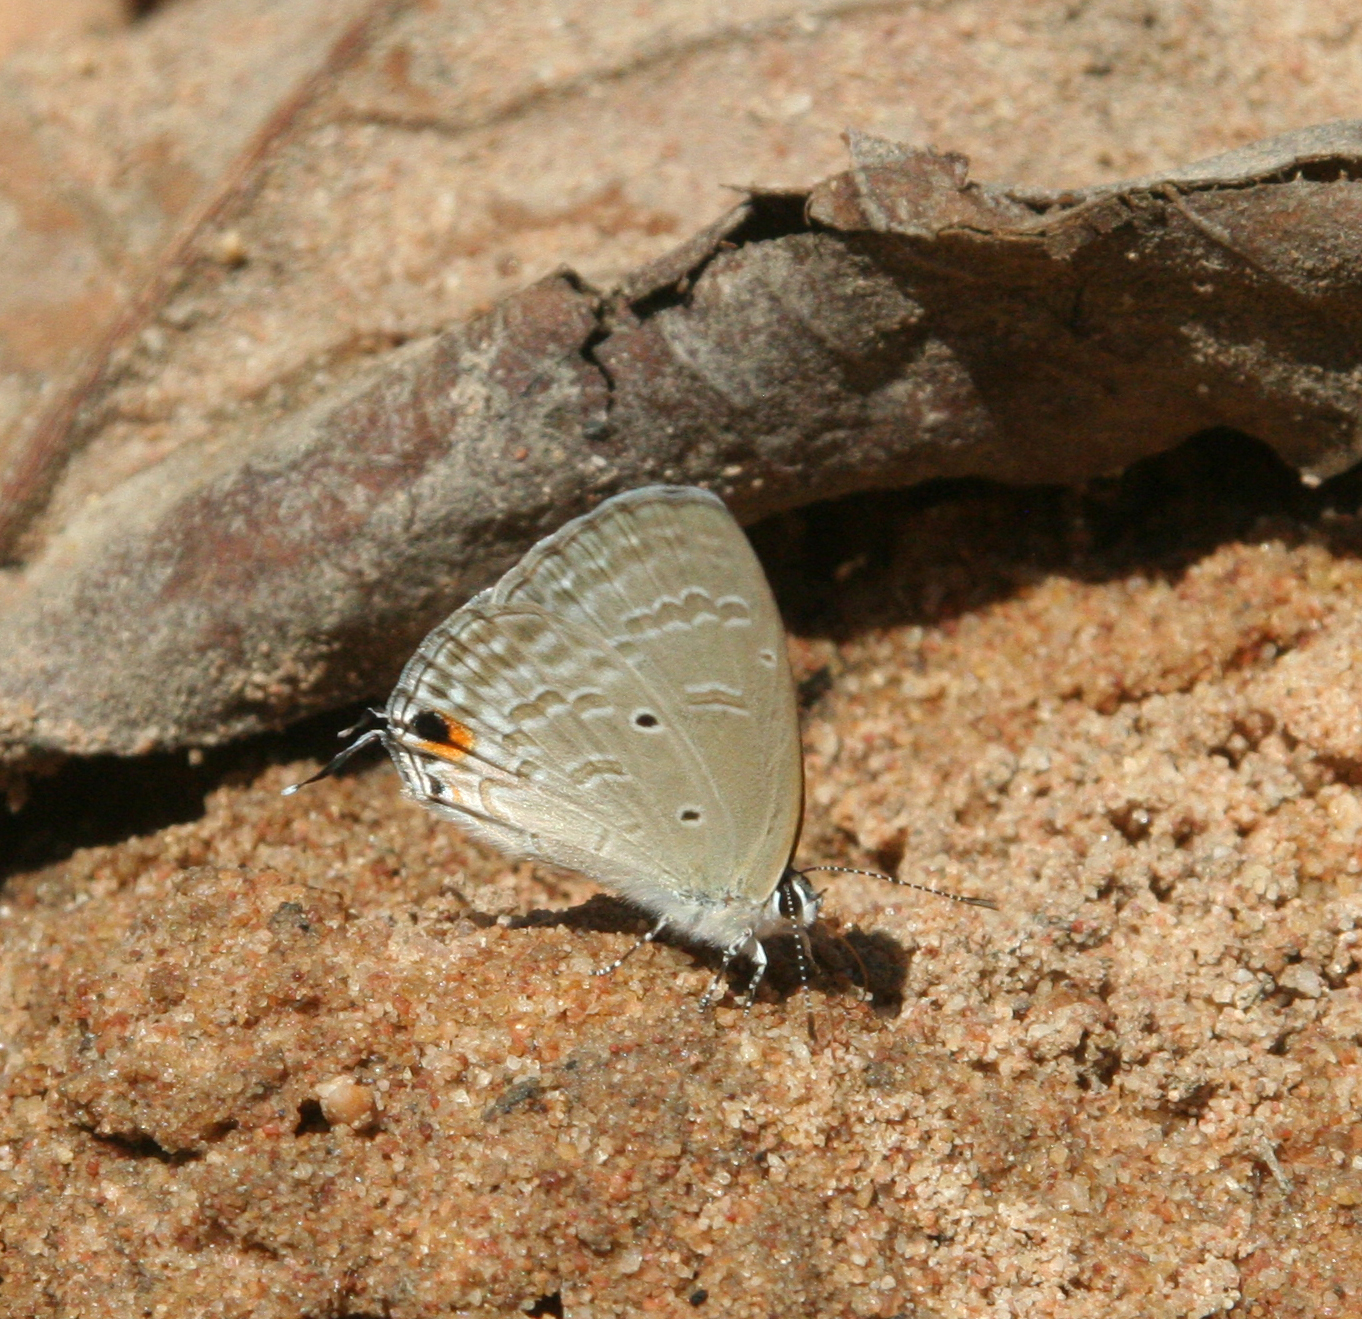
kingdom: Animalia
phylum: Arthropoda
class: Insecta
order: Lepidoptera
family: Lycaenidae
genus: Catochrysops
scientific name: Catochrysops strabo
